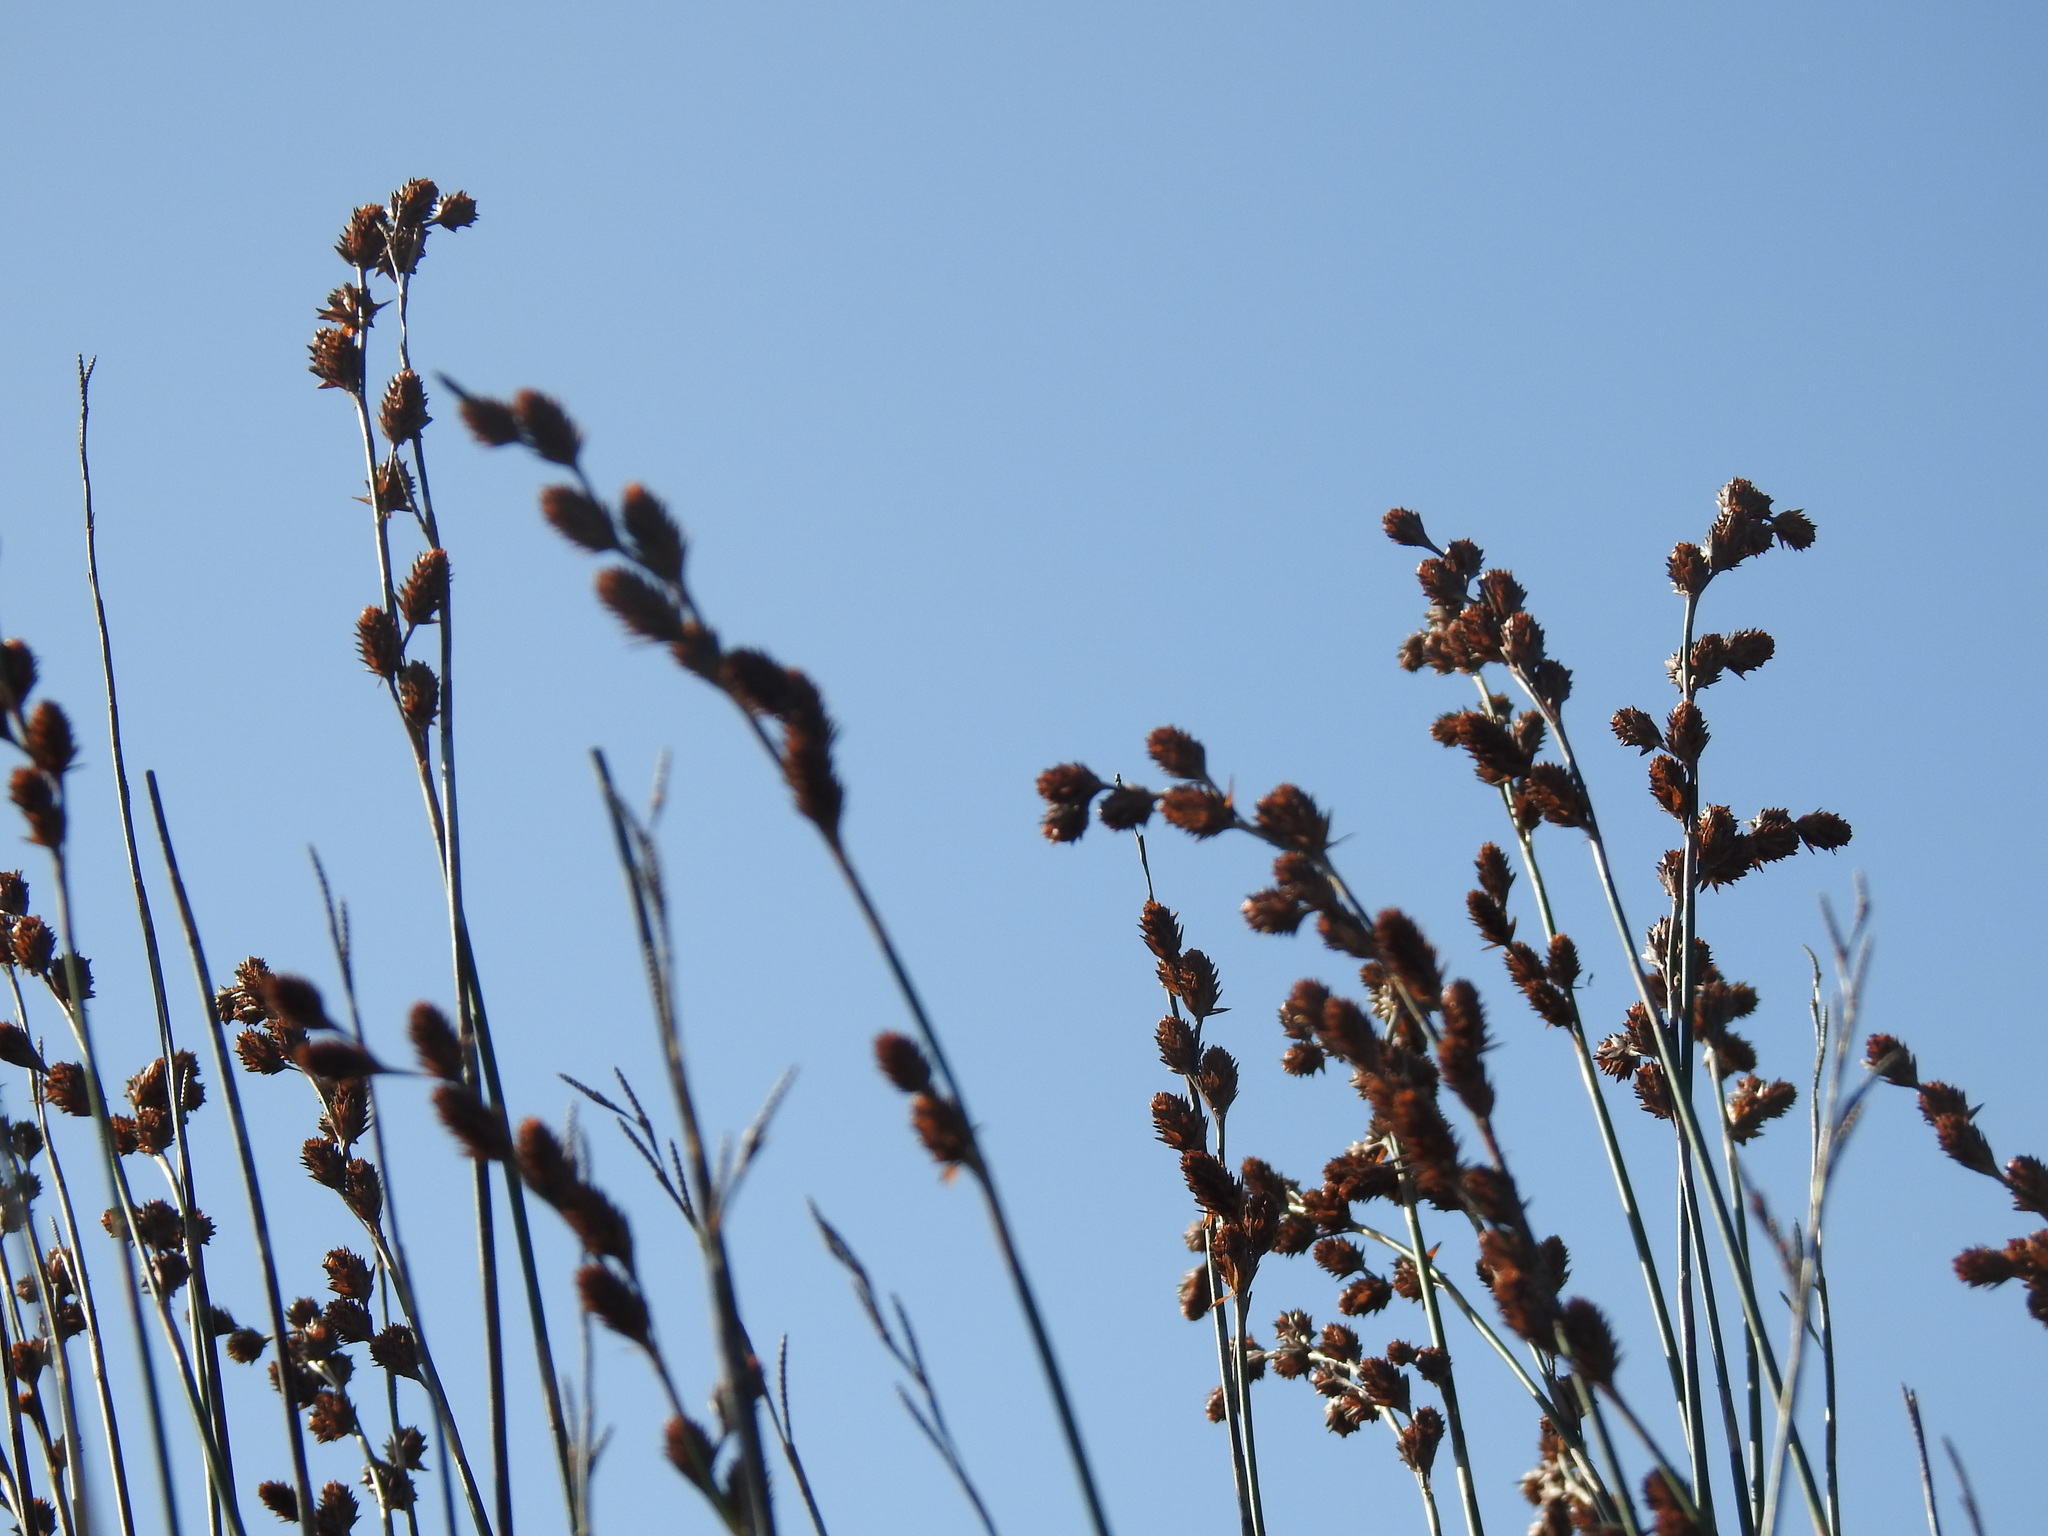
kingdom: Plantae
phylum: Tracheophyta
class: Liliopsida
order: Poales
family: Restionaceae
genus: Thamnochortus
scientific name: Thamnochortus spicigerus
